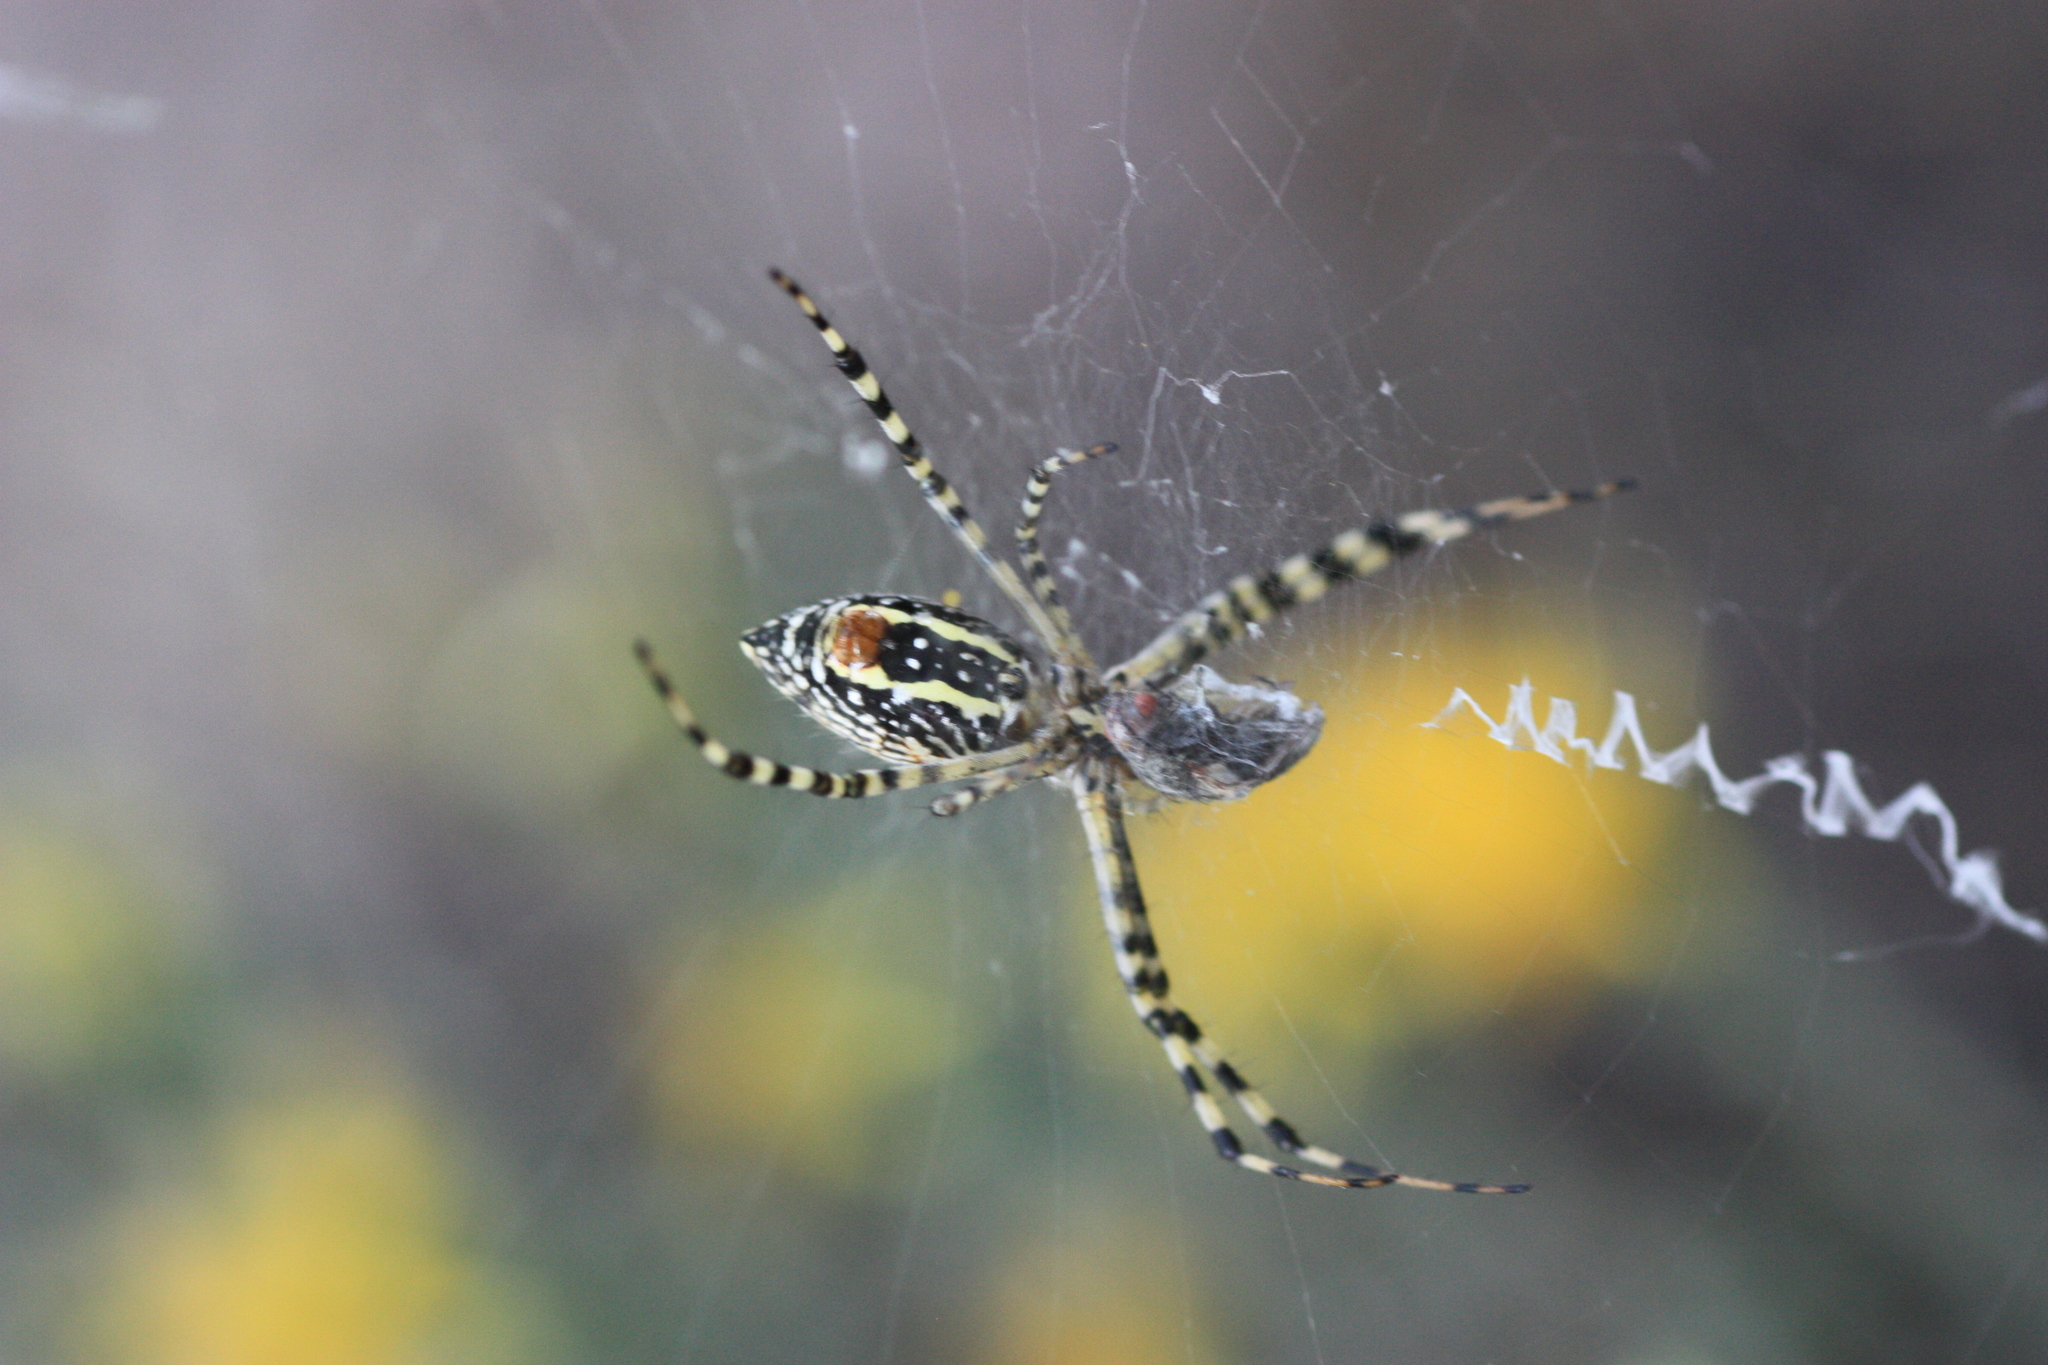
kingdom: Animalia
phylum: Arthropoda
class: Arachnida
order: Araneae
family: Araneidae
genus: Argiope
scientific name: Argiope trifasciata
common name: Banded garden spider
